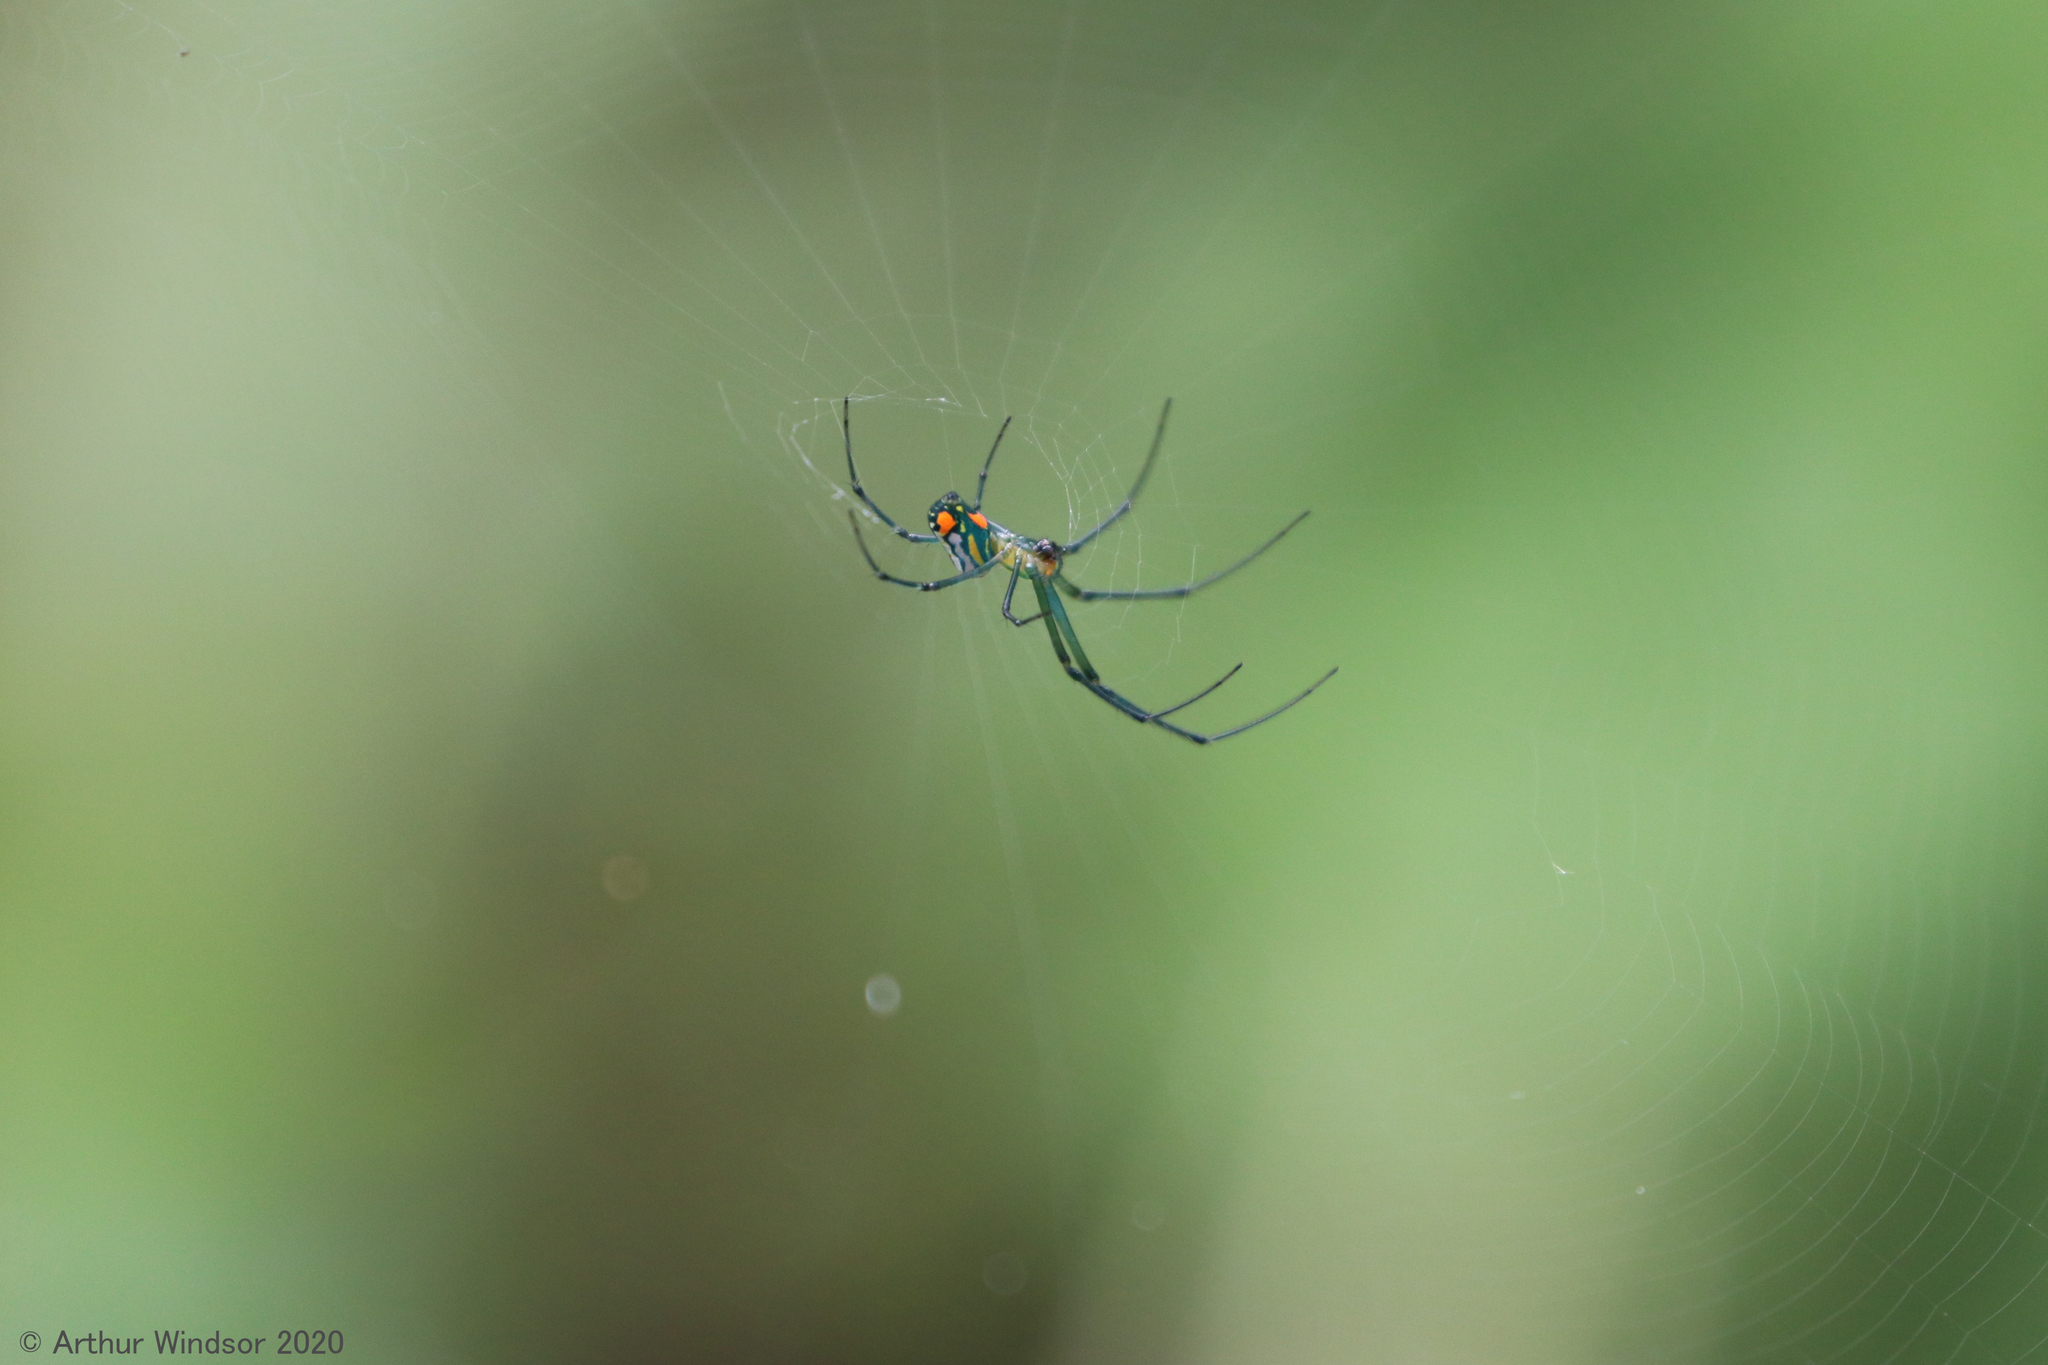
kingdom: Animalia
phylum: Arthropoda
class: Arachnida
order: Araneae
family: Tetragnathidae
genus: Leucauge
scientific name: Leucauge argyrobapta
